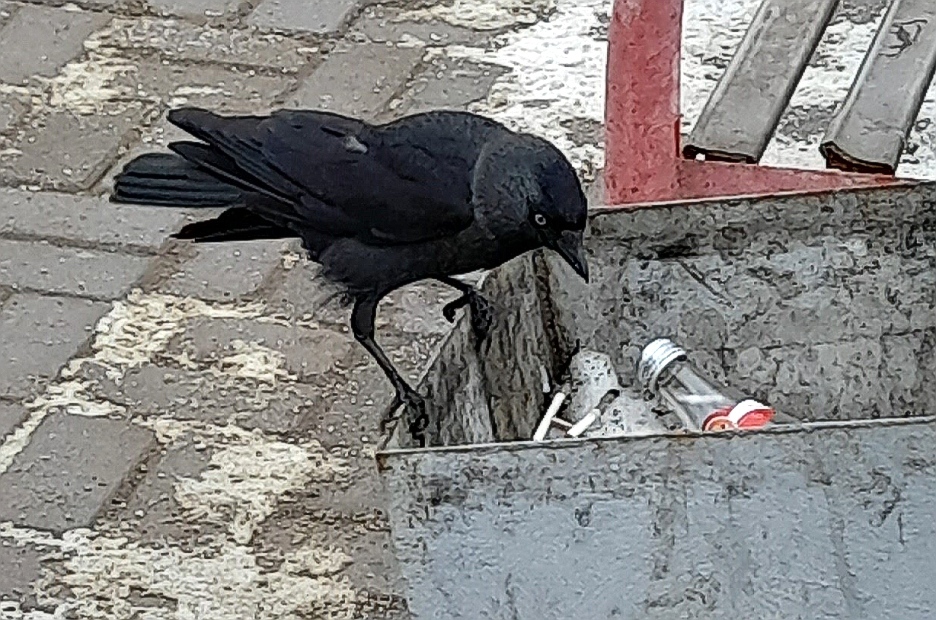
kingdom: Animalia
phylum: Chordata
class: Aves
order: Passeriformes
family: Corvidae
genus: Coloeus
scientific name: Coloeus monedula
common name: Western jackdaw
